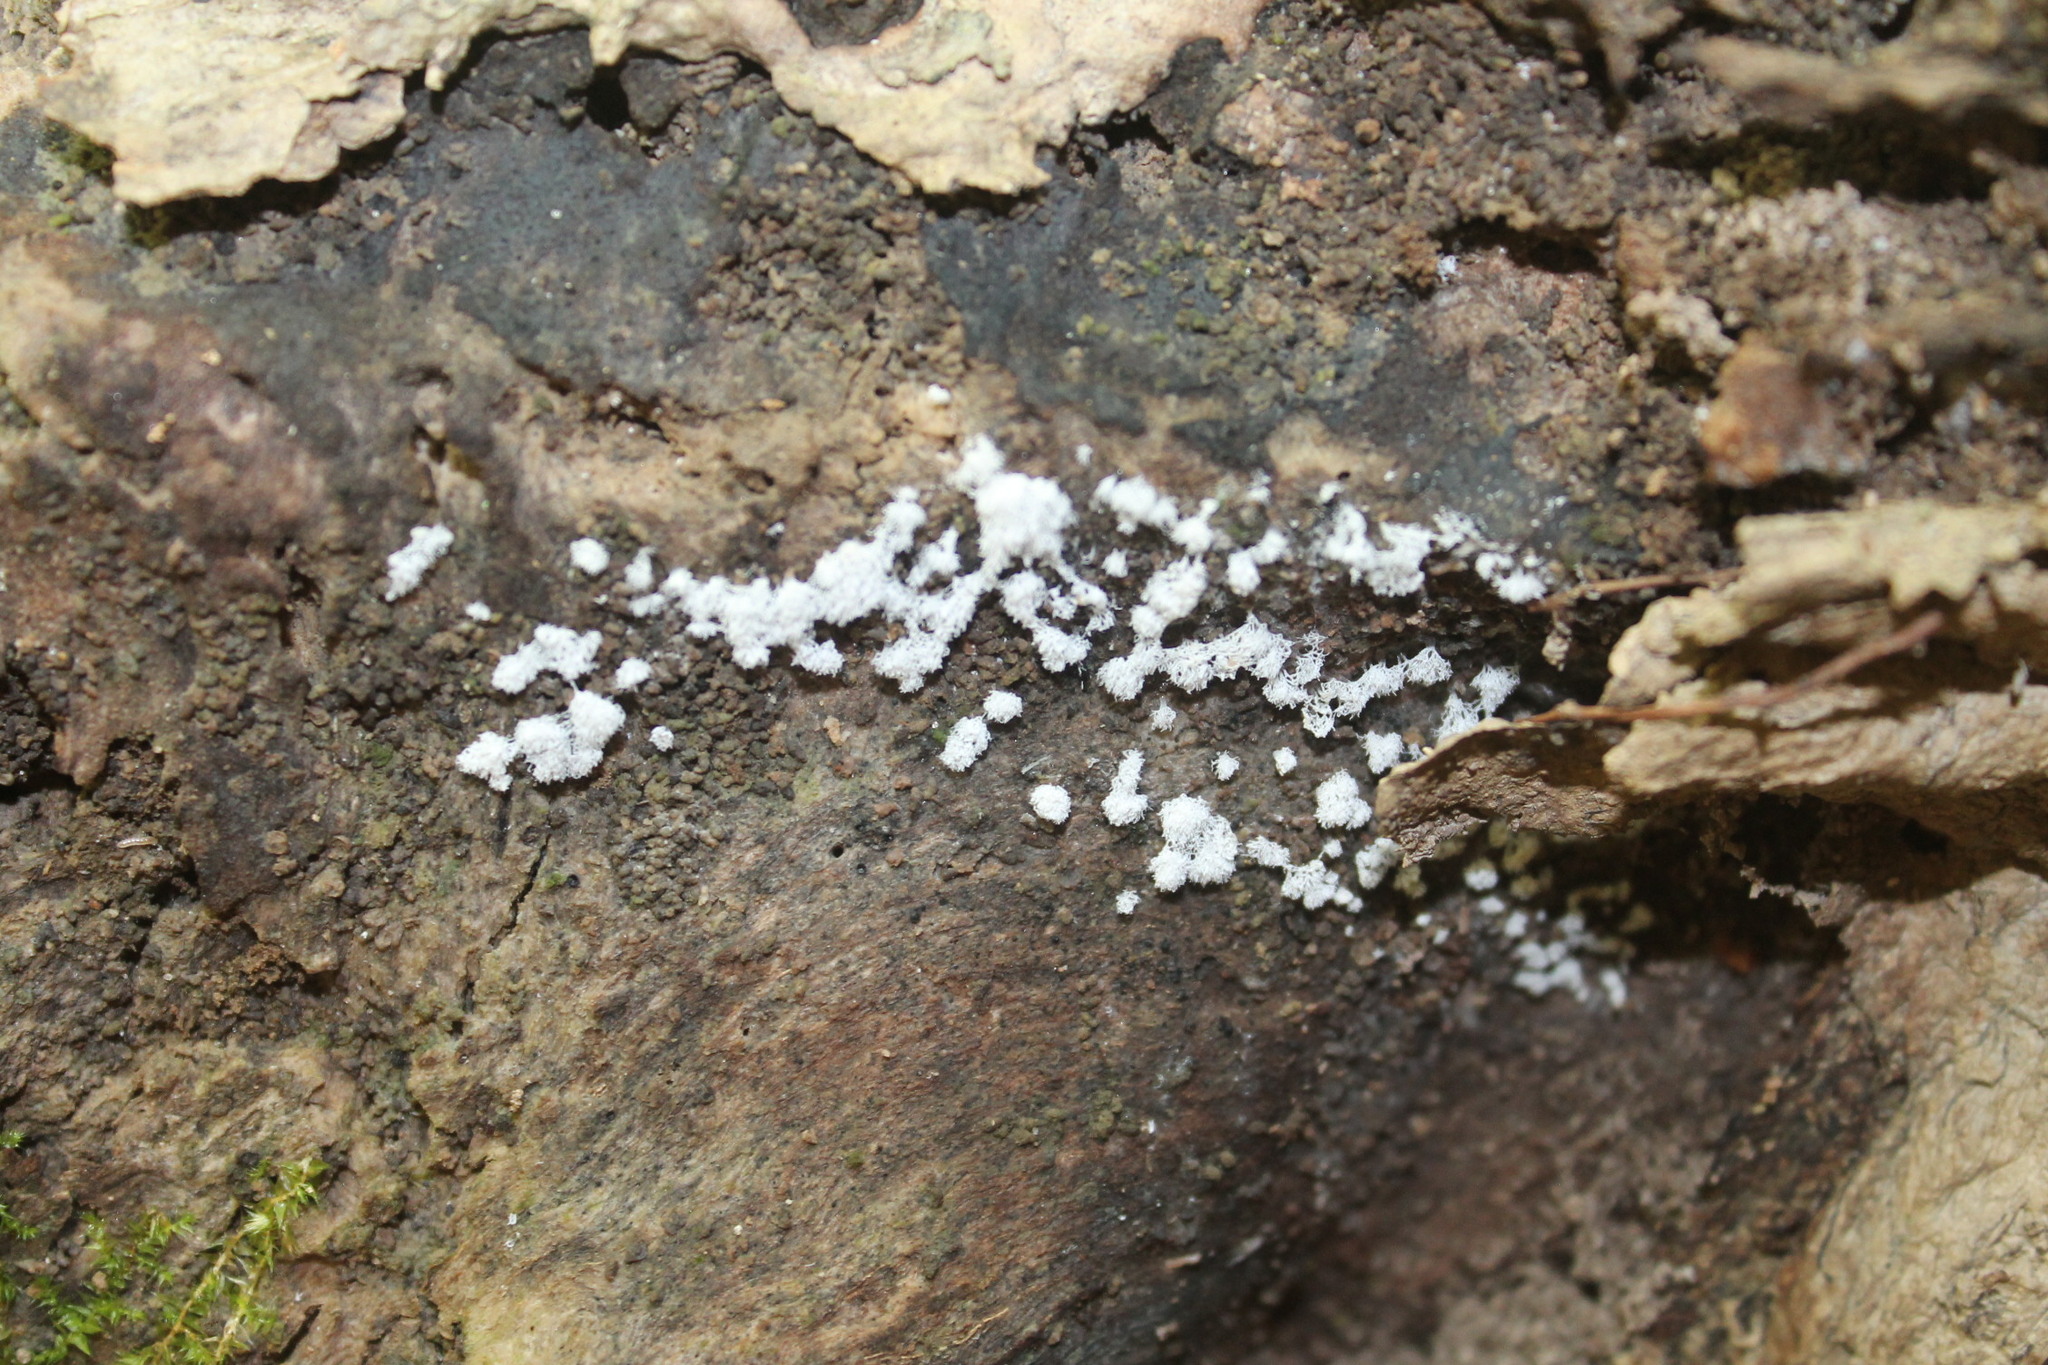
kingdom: Protozoa
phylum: Mycetozoa
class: Protosteliomycetes
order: Ceratiomyxales
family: Ceratiomyxaceae
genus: Ceratiomyxa
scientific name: Ceratiomyxa fruticulosa
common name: Honeycomb coral slime mold
